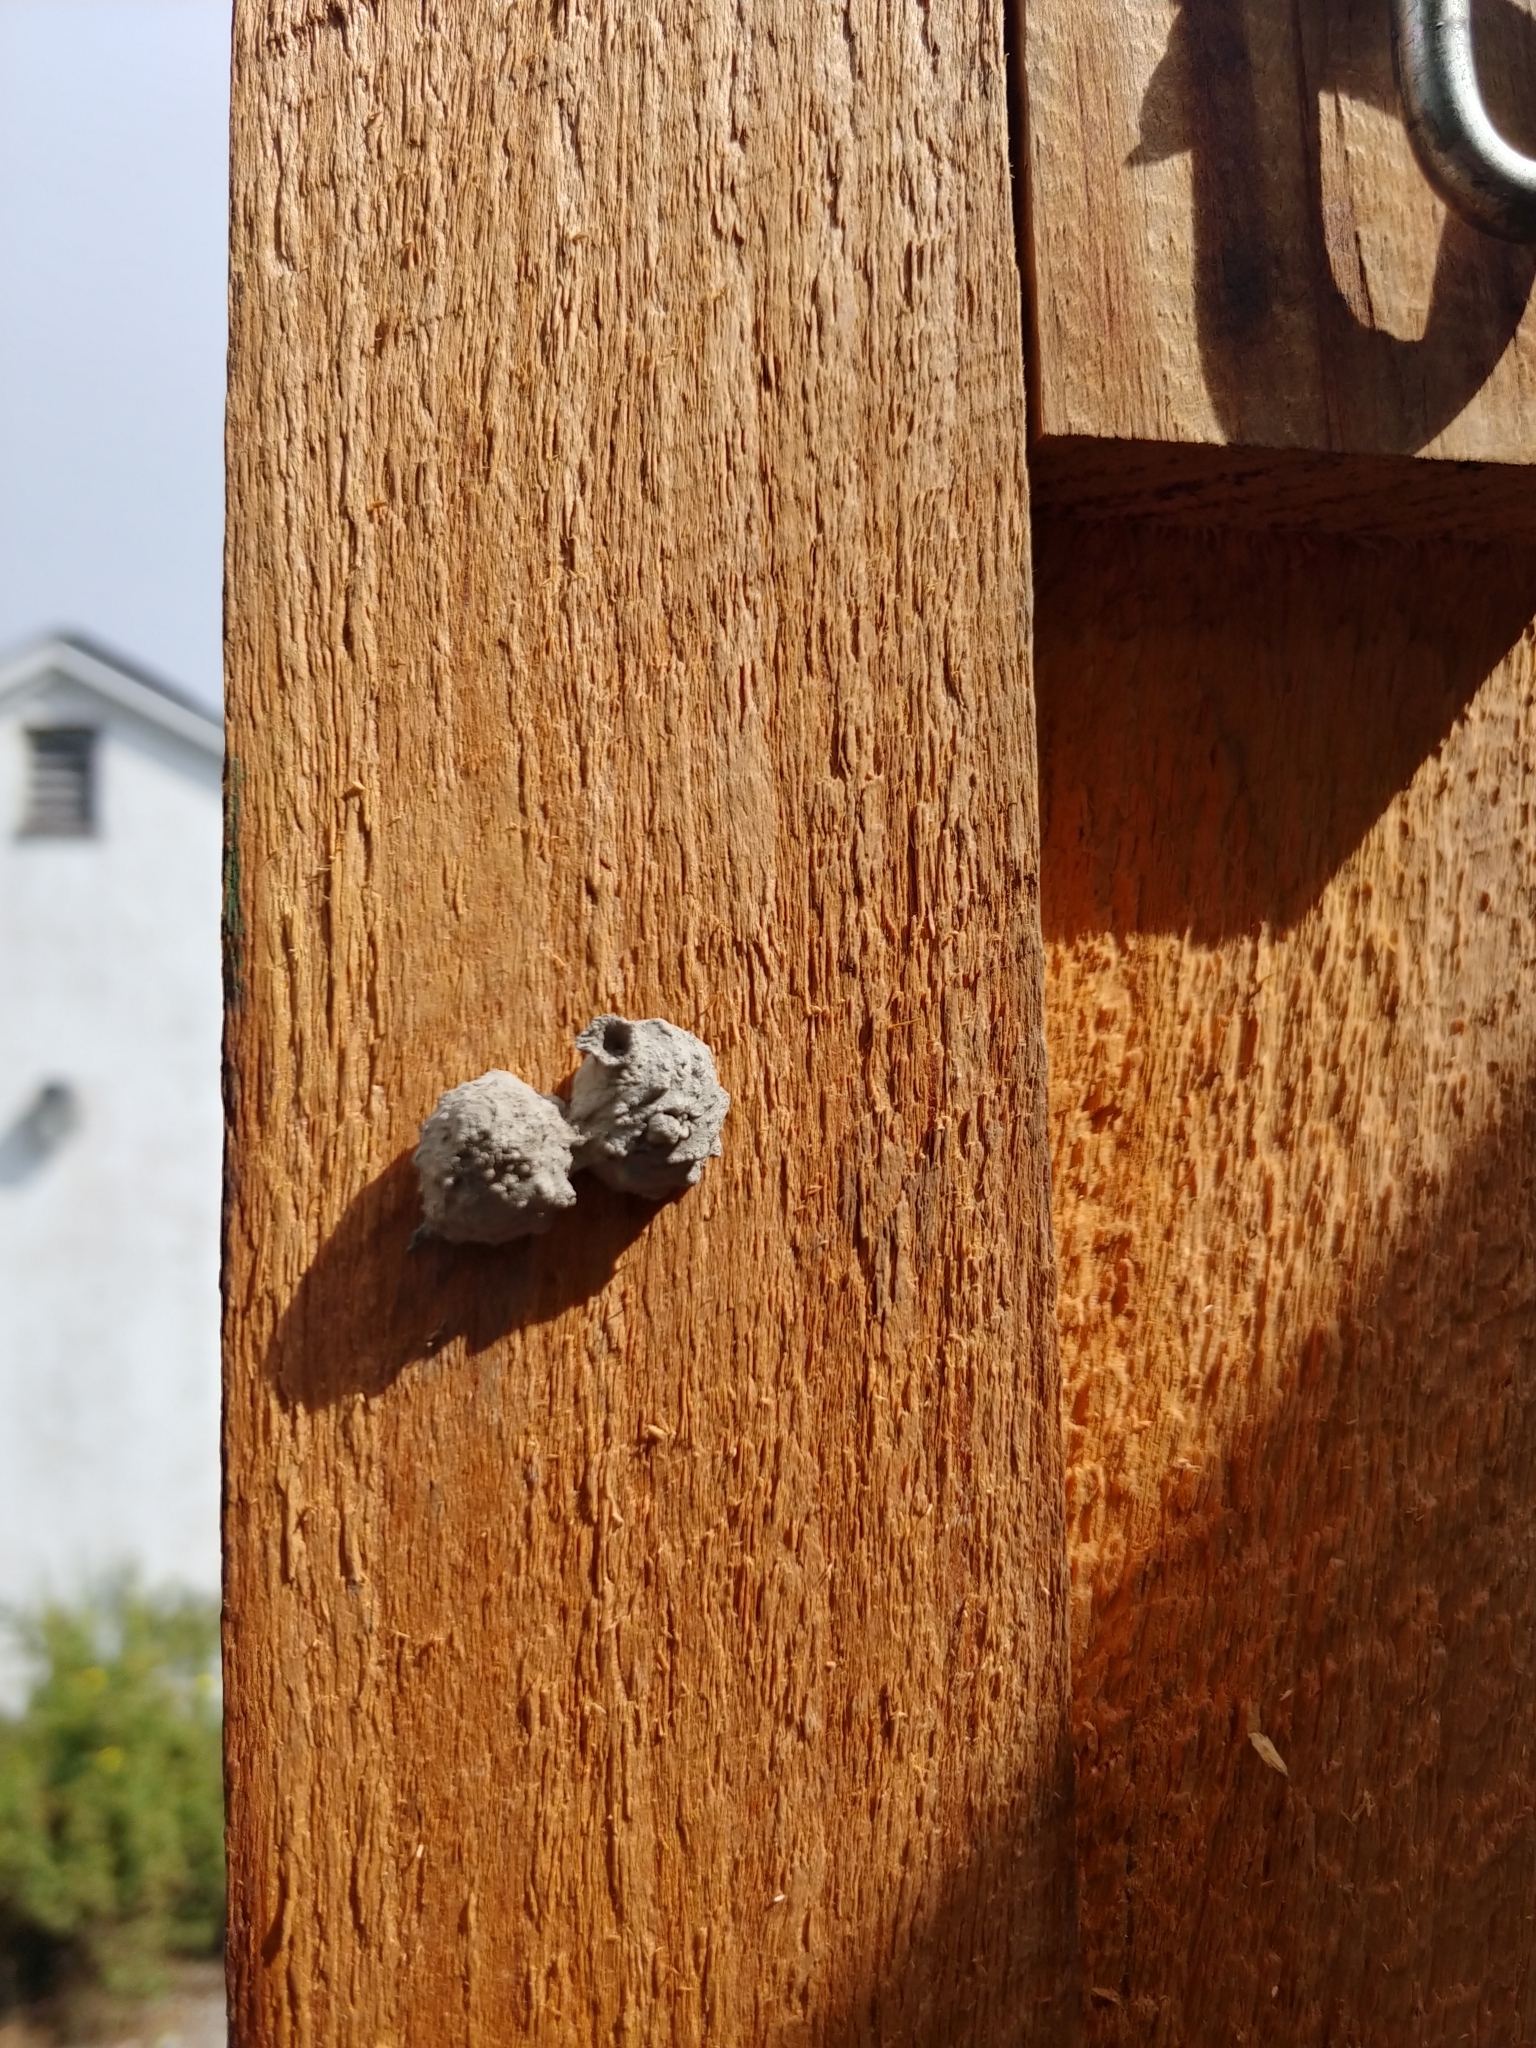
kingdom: Animalia
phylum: Arthropoda
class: Insecta
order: Hymenoptera
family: Vespidae
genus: Eumenes
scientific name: Eumenes
